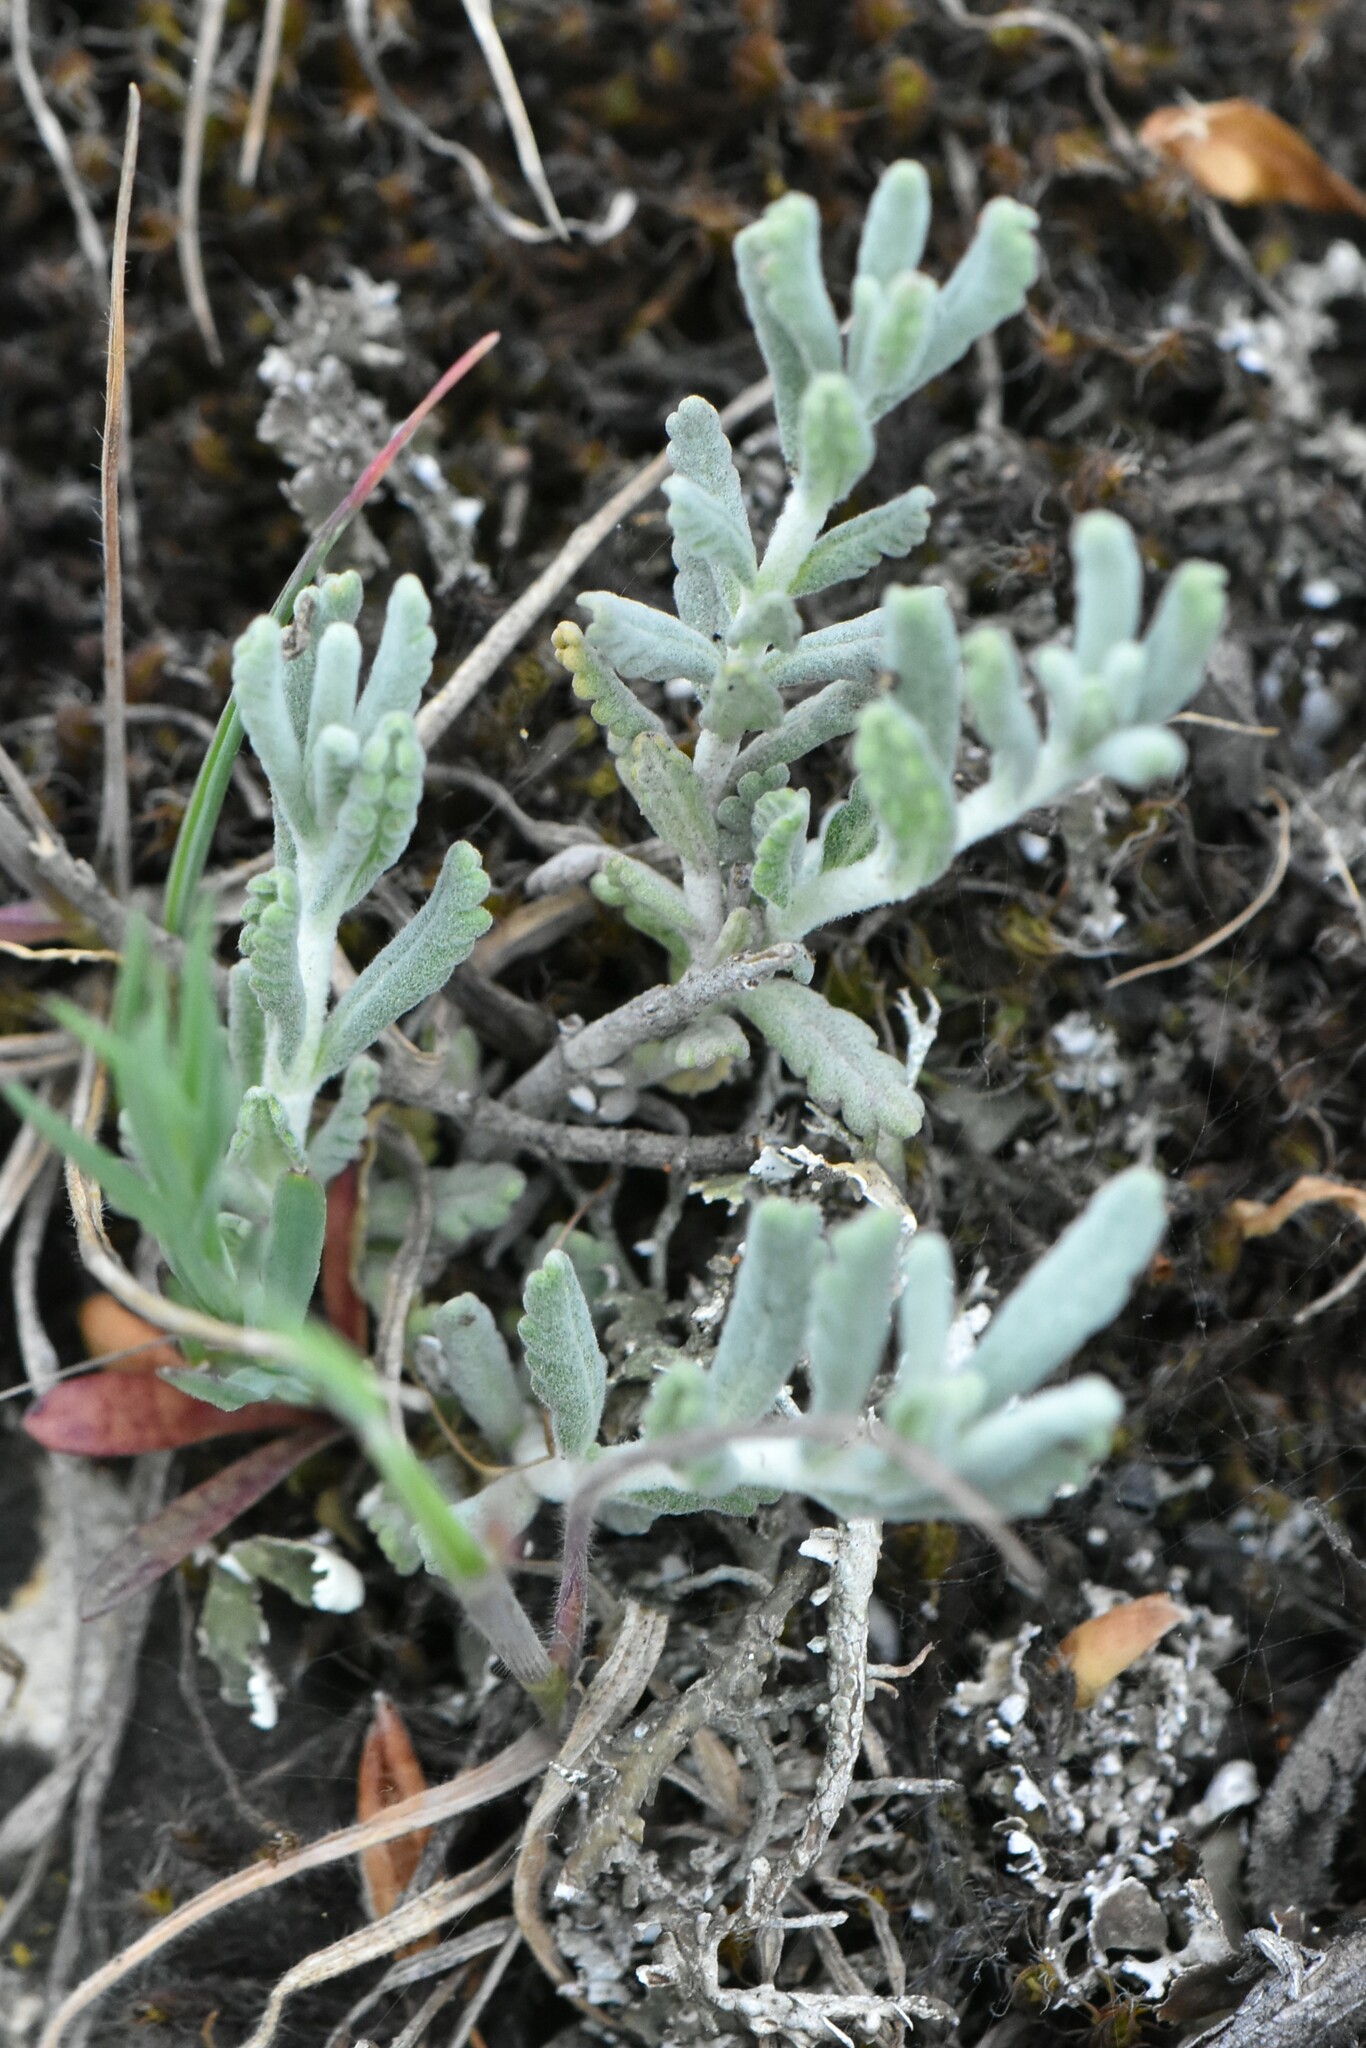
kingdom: Plantae
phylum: Tracheophyta
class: Magnoliopsida
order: Lamiales
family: Lamiaceae
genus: Teucrium
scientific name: Teucrium polium
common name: Poley
